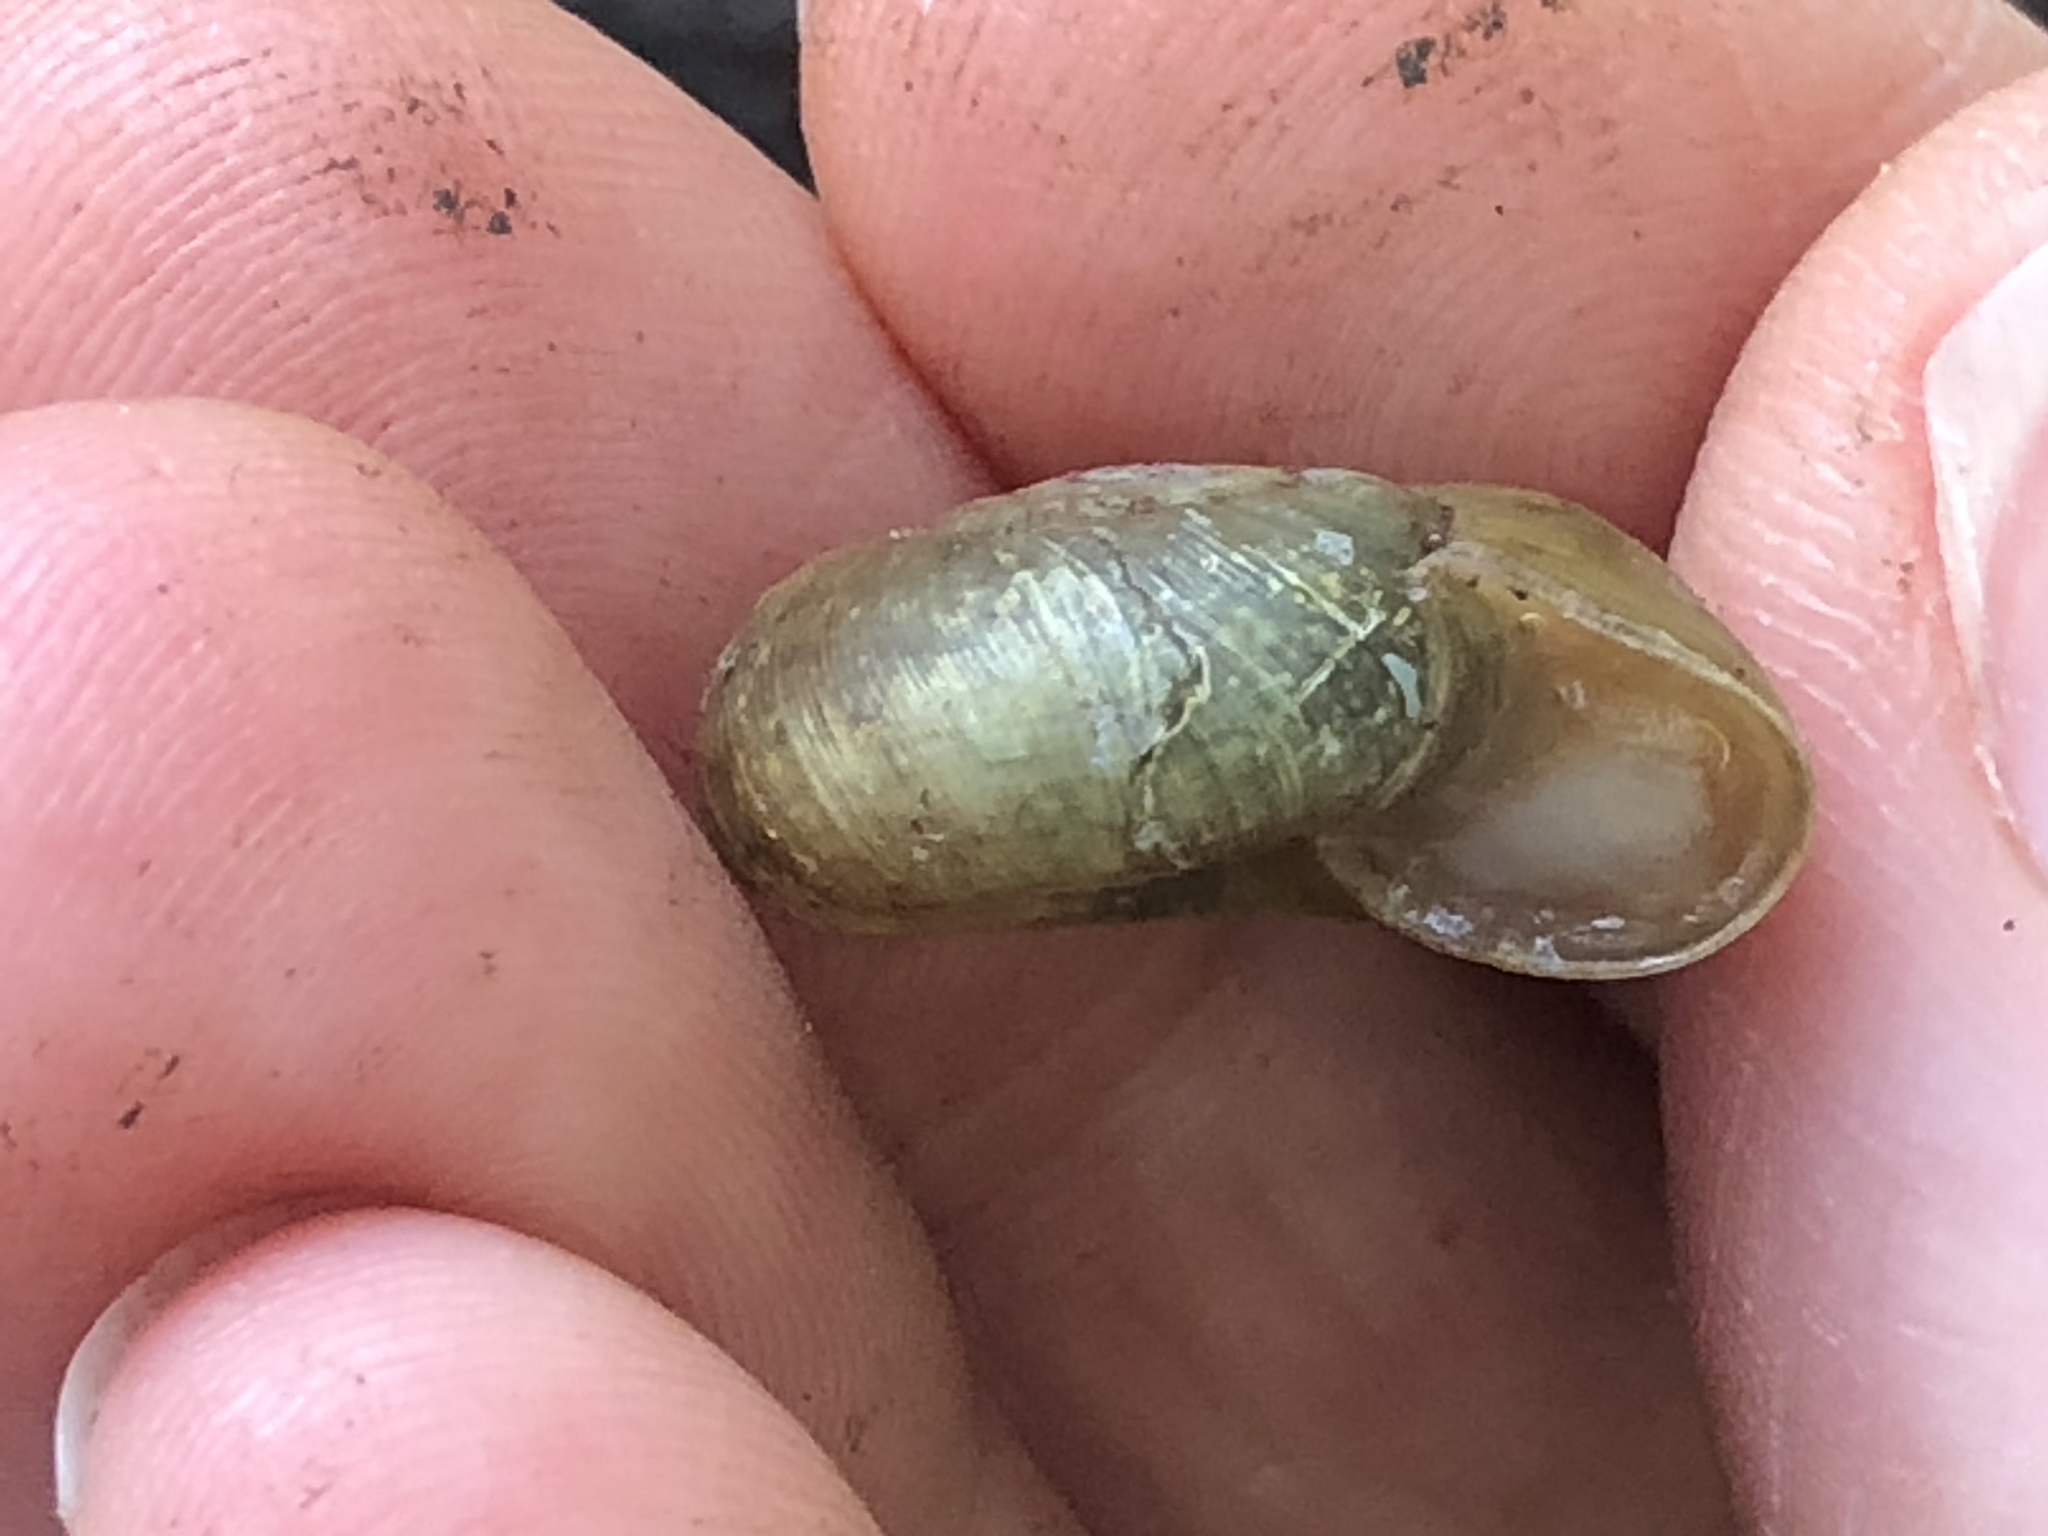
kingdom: Animalia
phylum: Mollusca
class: Gastropoda
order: Stylommatophora
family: Haplotrematidae
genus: Haplotrema
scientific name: Haplotrema minimum
